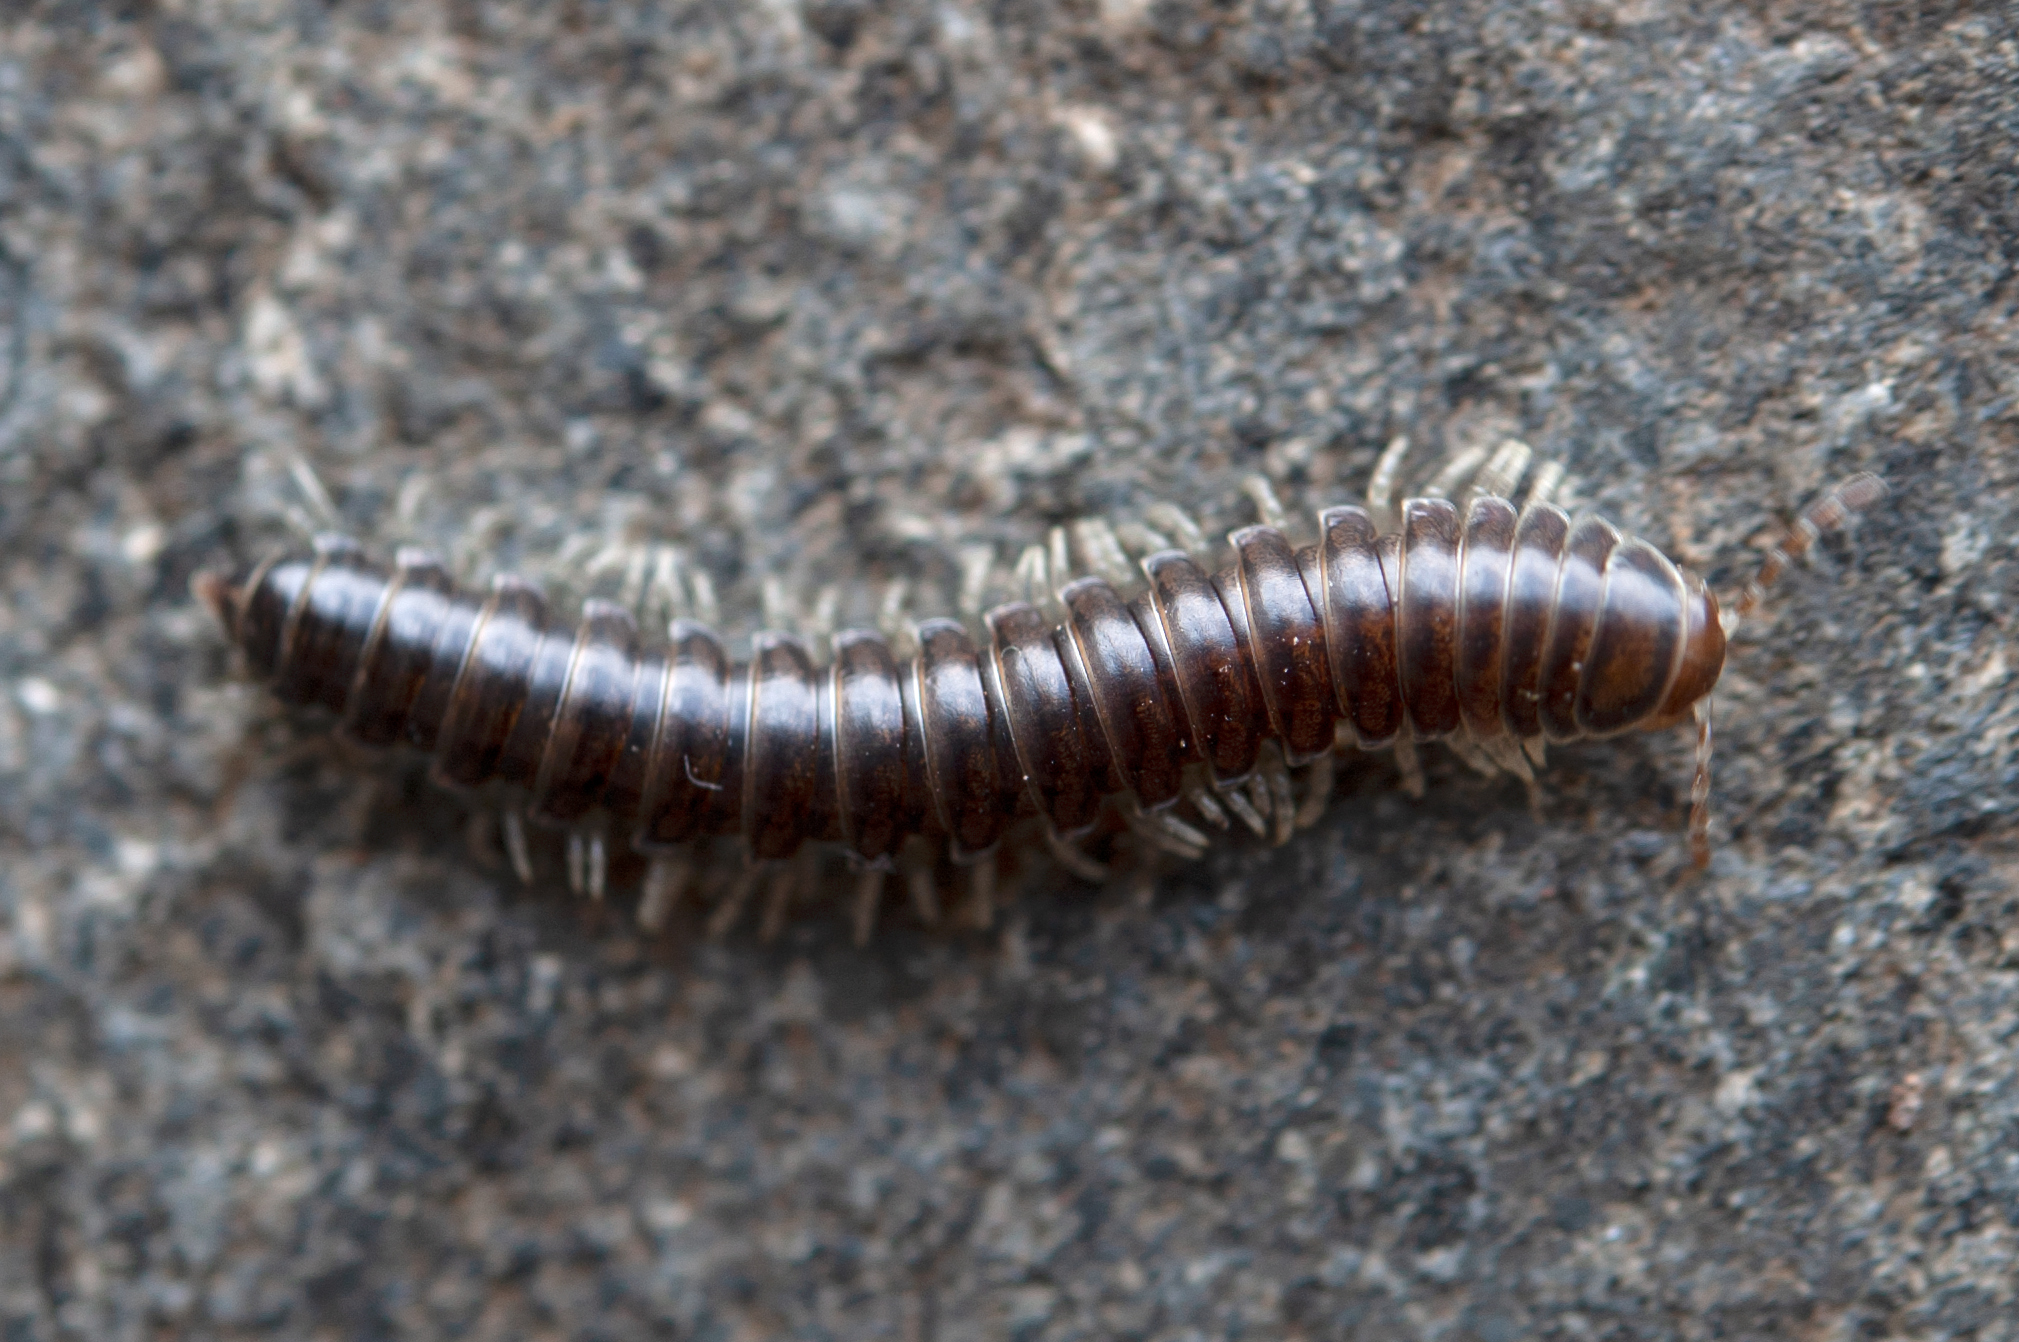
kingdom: Animalia
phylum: Arthropoda
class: Diplopoda
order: Polydesmida
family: Xystodesmidae
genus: Isaphe
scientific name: Isaphe convexa
